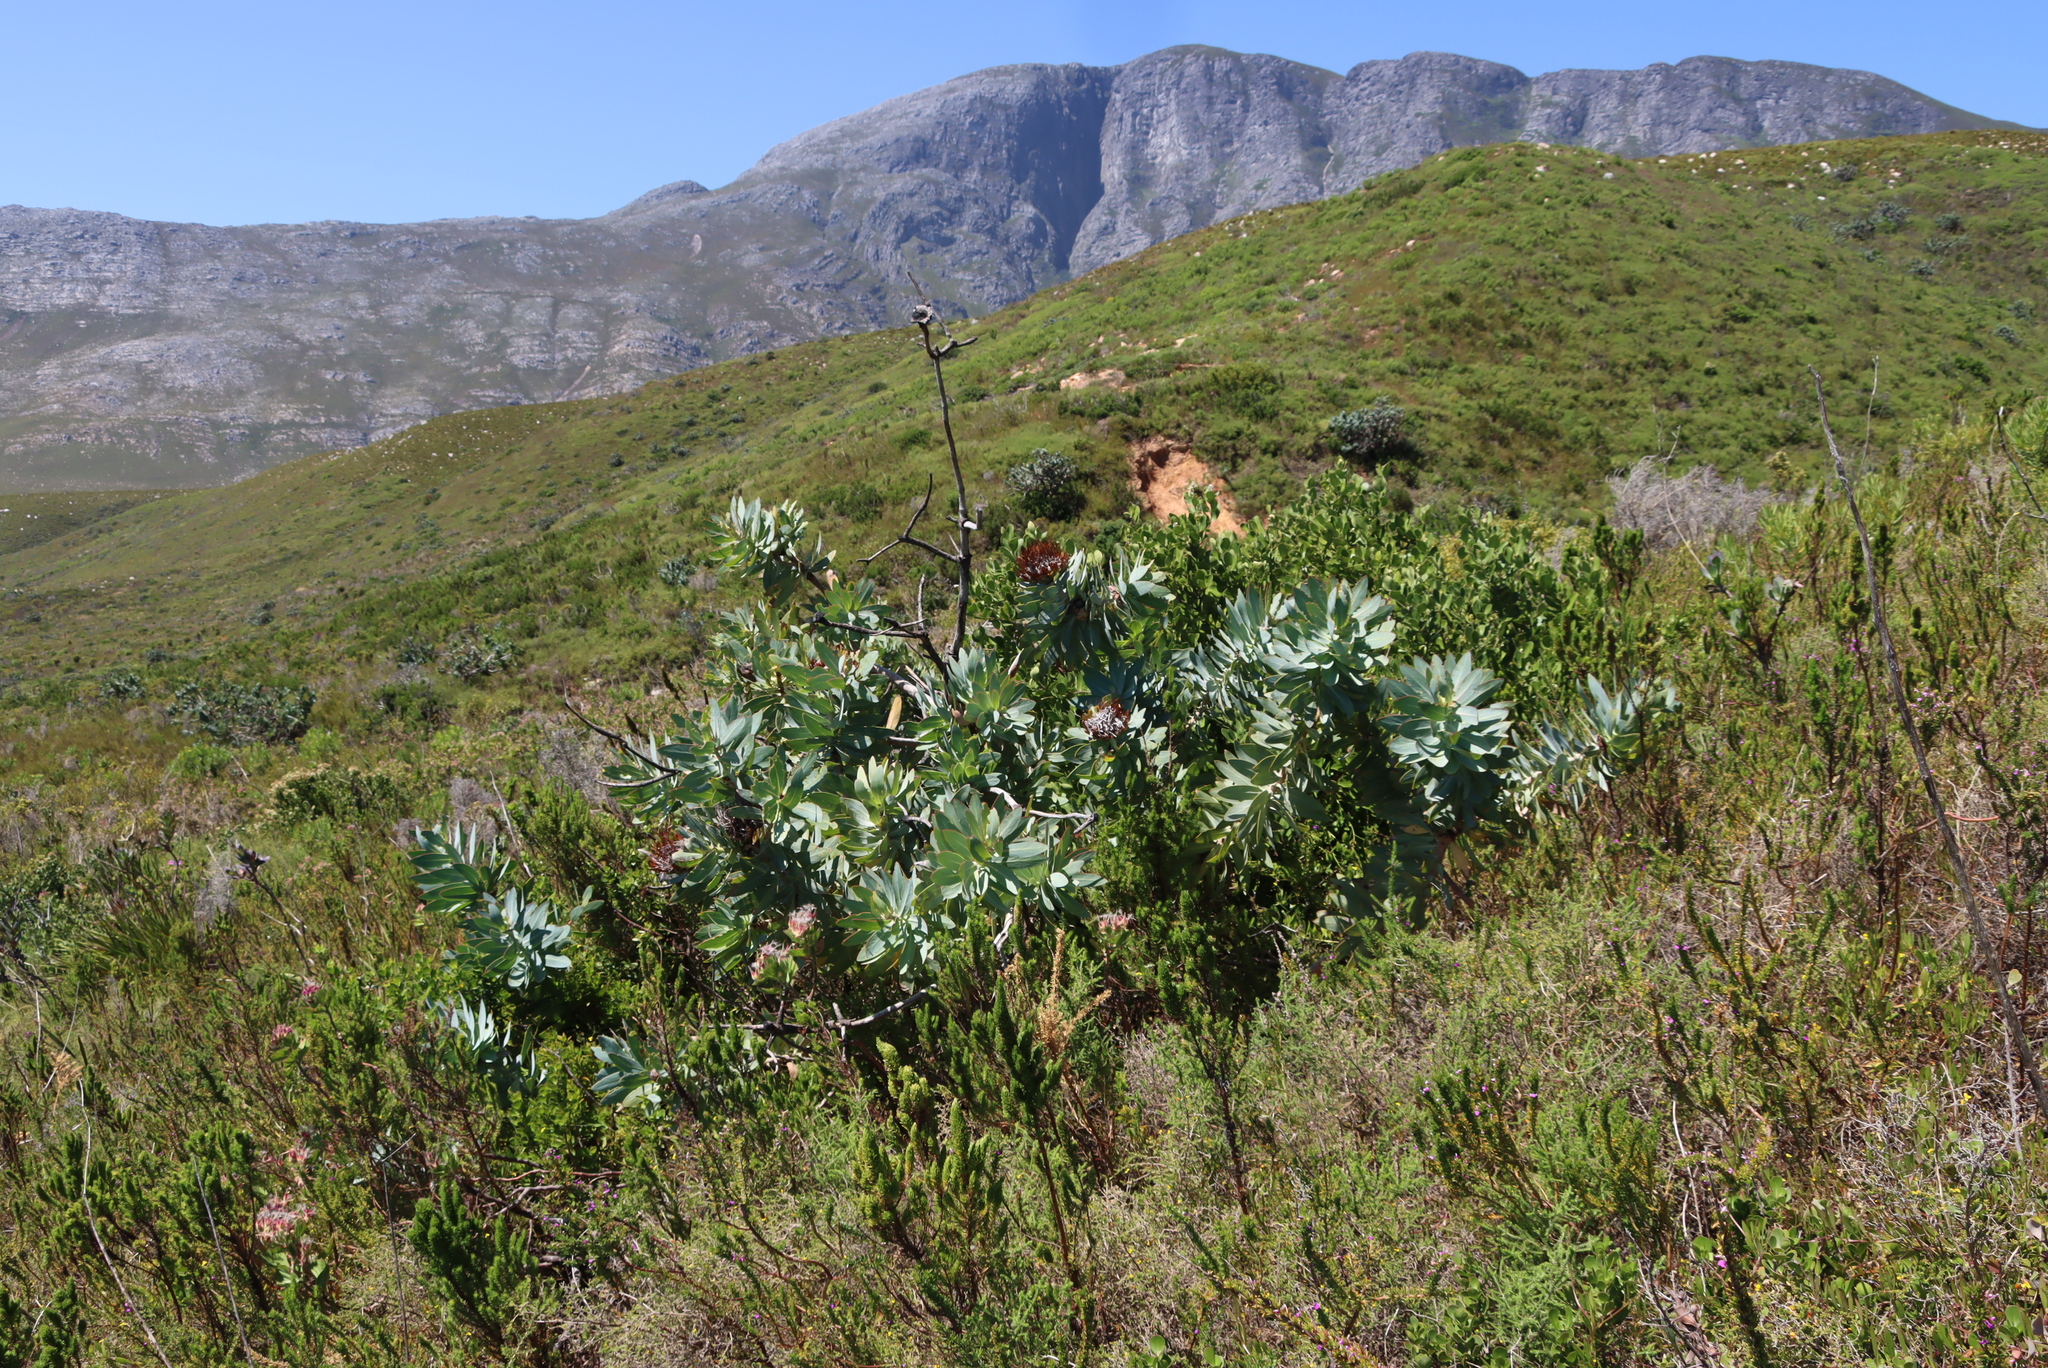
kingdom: Plantae
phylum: Tracheophyta
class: Magnoliopsida
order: Proteales
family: Proteaceae
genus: Protea
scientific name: Protea nitida
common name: Tree protea
